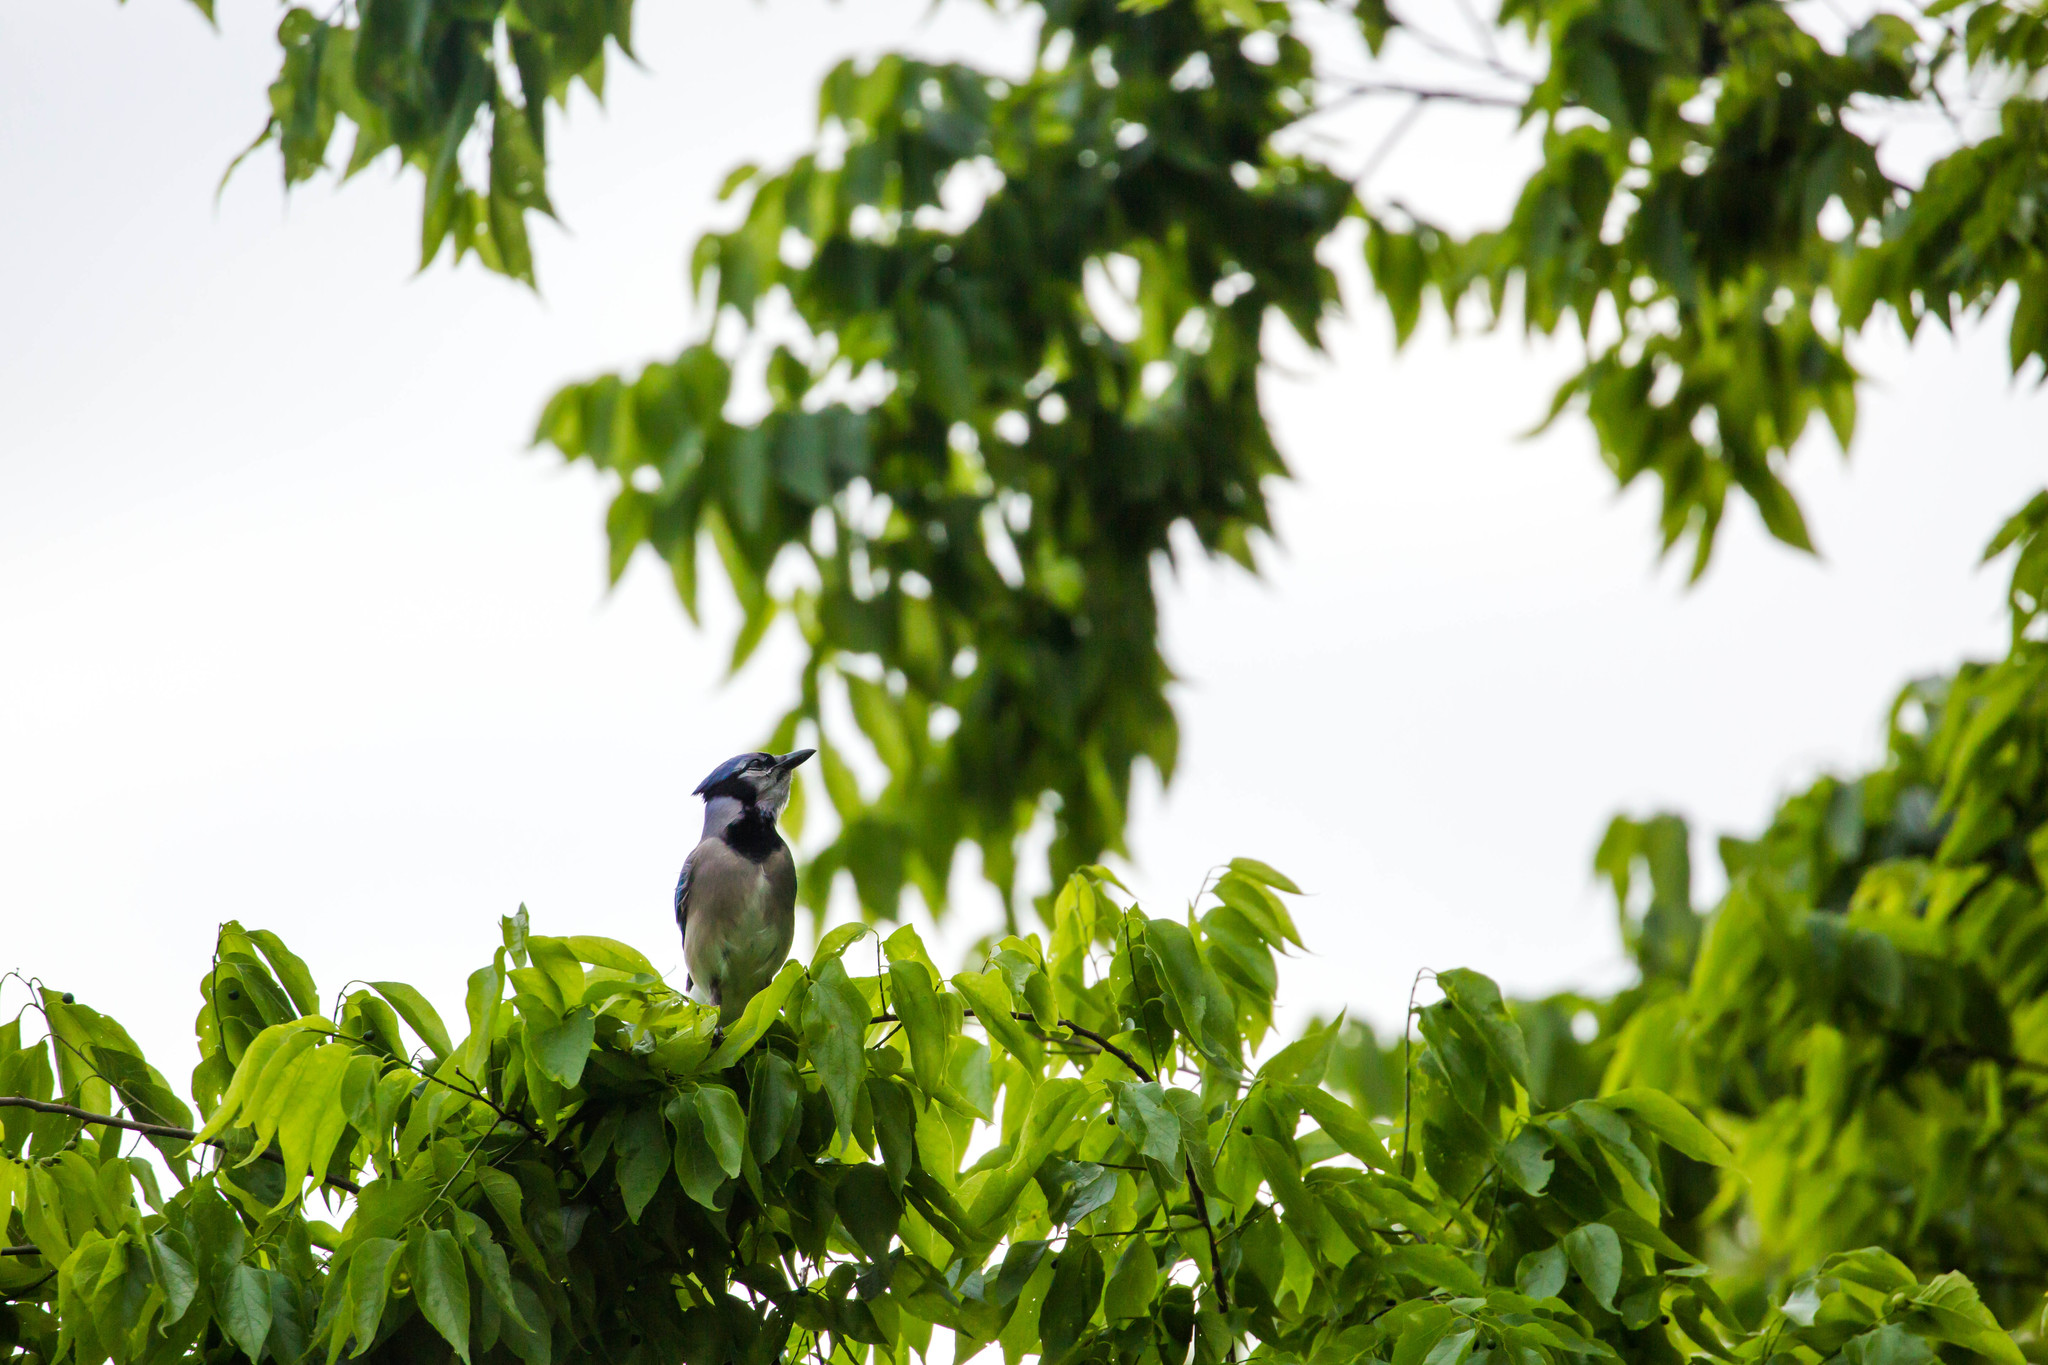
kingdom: Animalia
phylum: Chordata
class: Aves
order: Passeriformes
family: Corvidae
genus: Cyanocitta
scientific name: Cyanocitta cristata
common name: Blue jay
